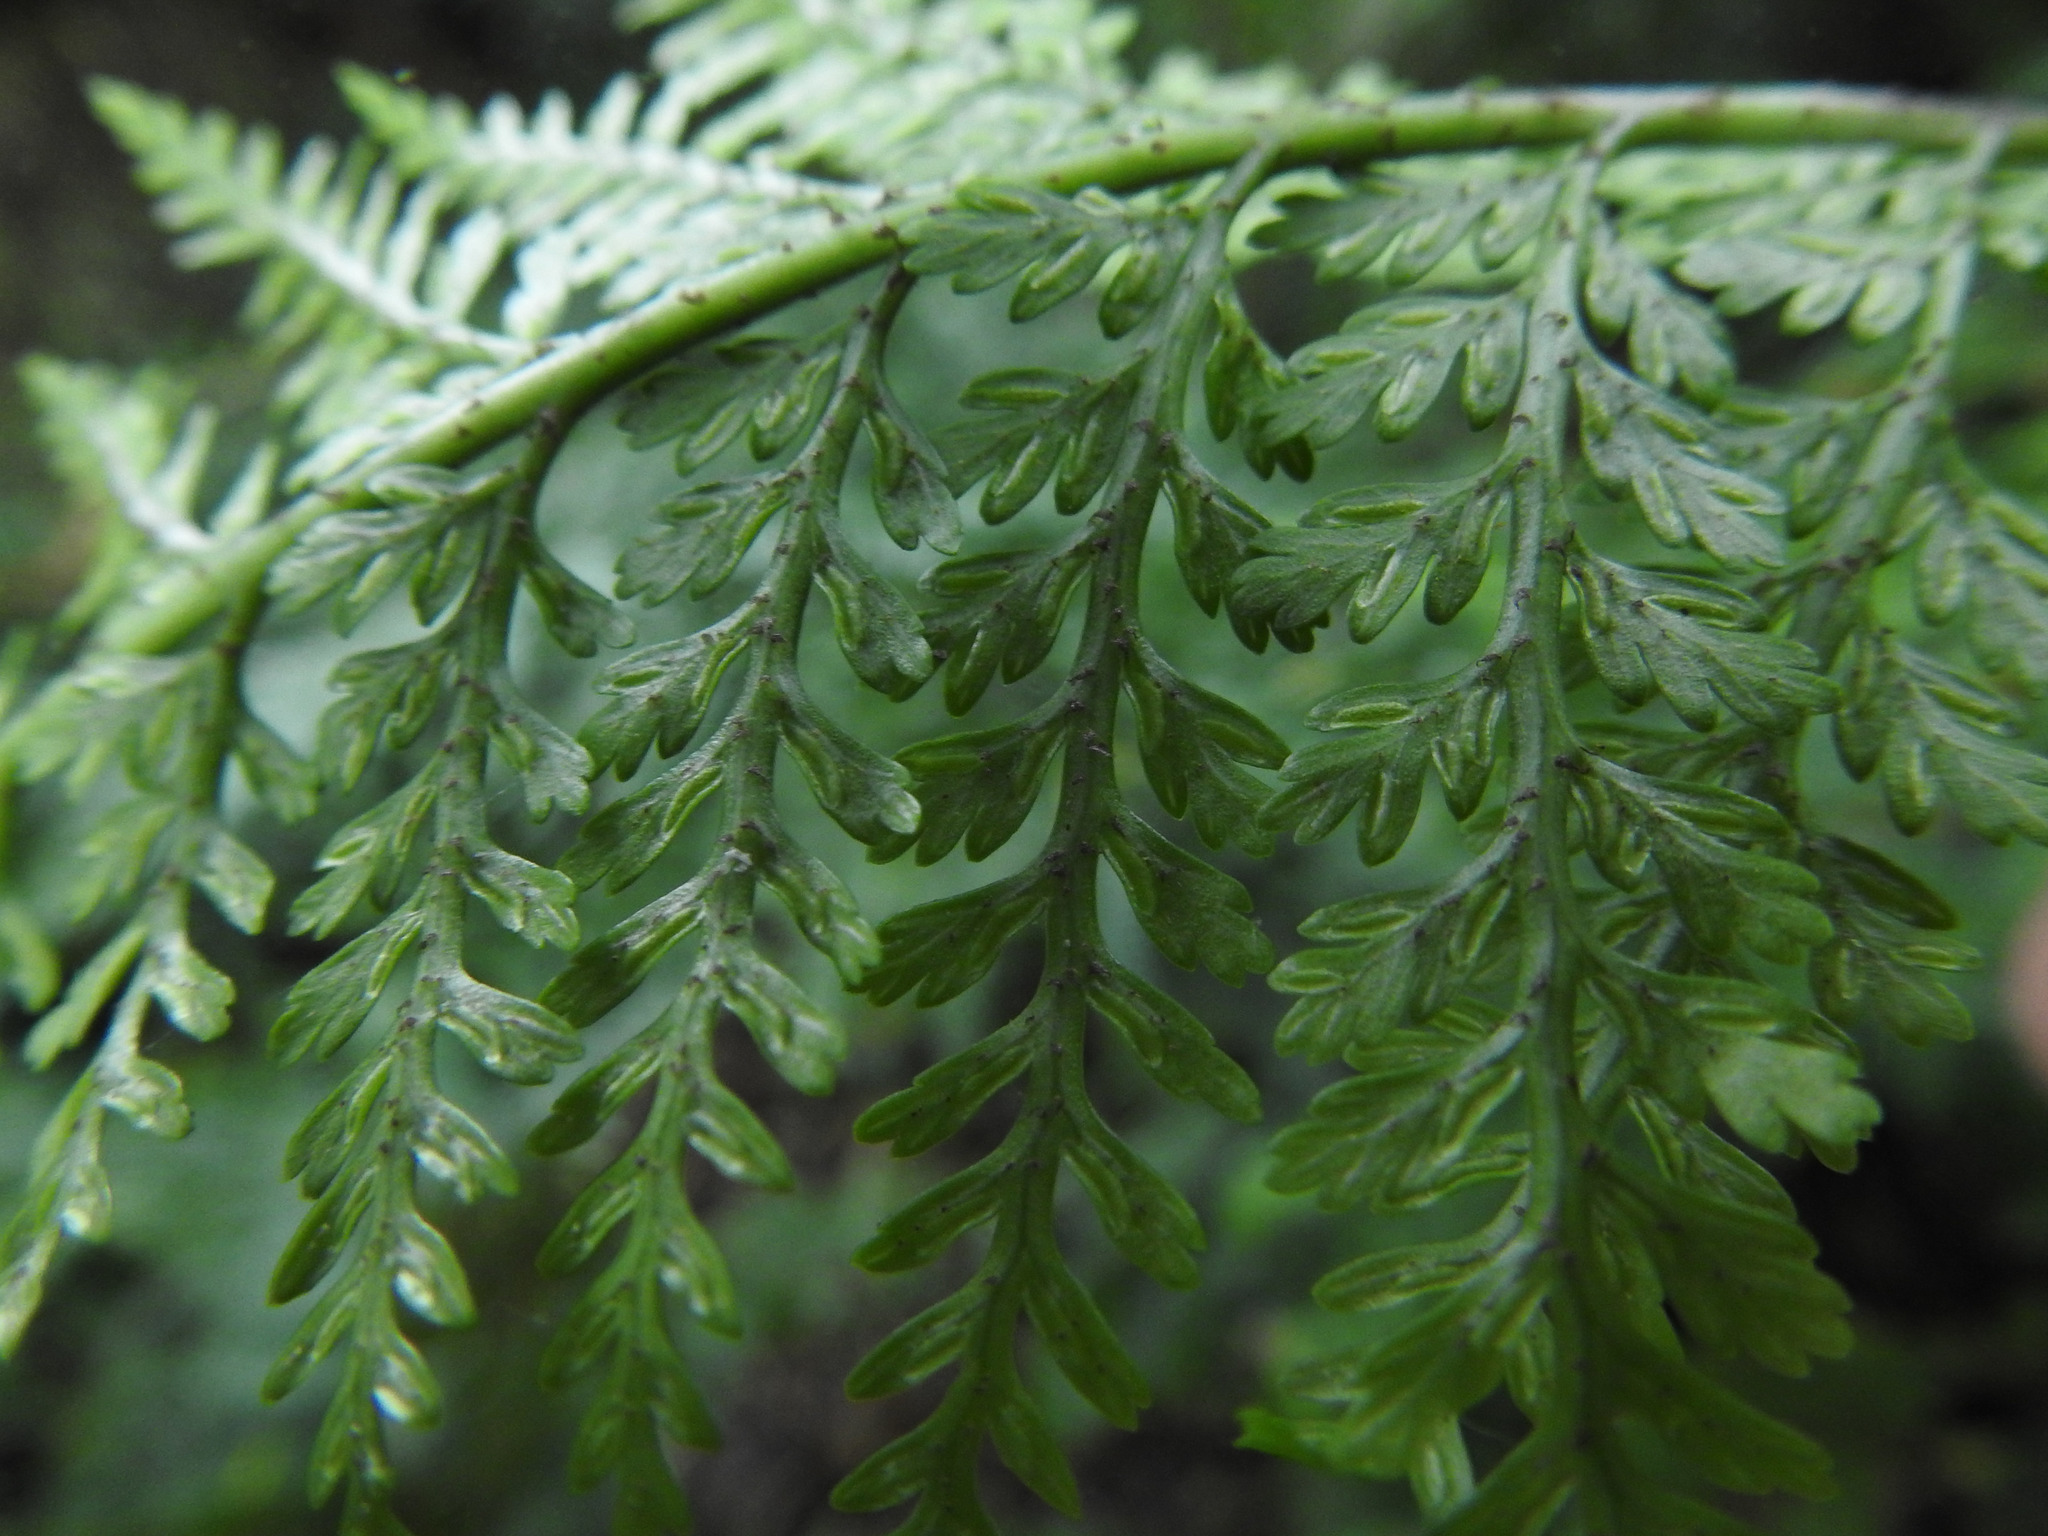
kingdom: Plantae
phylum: Tracheophyta
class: Polypodiopsida
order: Polypodiales
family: Aspleniaceae
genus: Asplenium
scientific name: Asplenium
